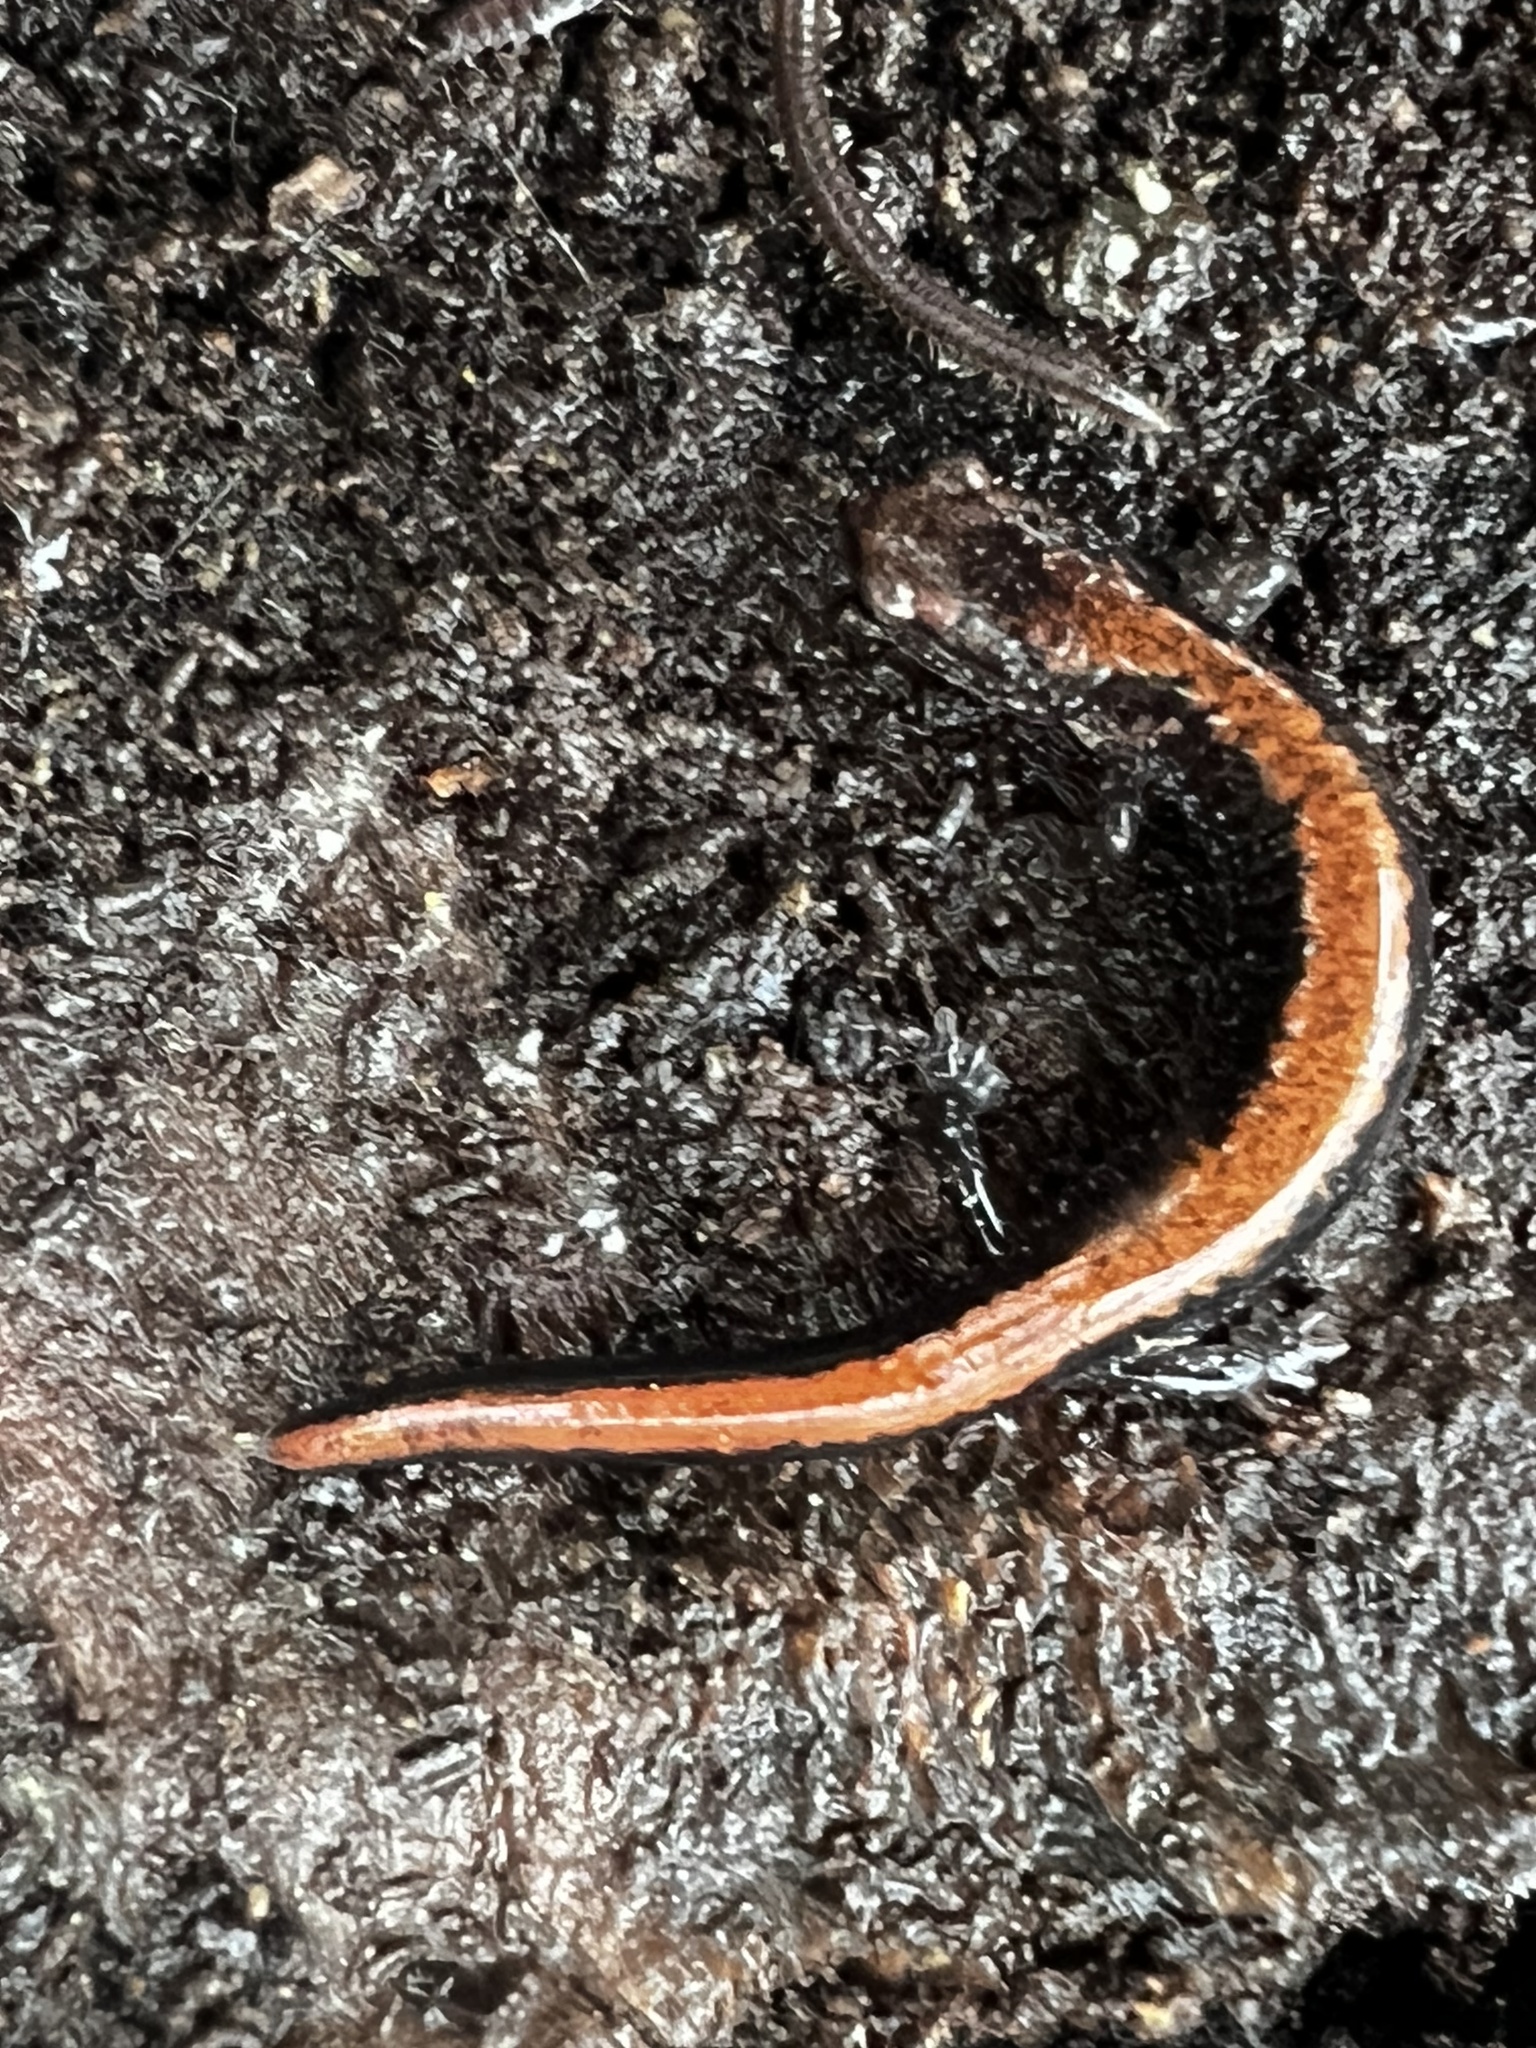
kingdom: Animalia
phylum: Chordata
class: Amphibia
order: Caudata
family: Plethodontidae
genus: Plethodon
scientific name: Plethodon cinereus
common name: Redback salamander
